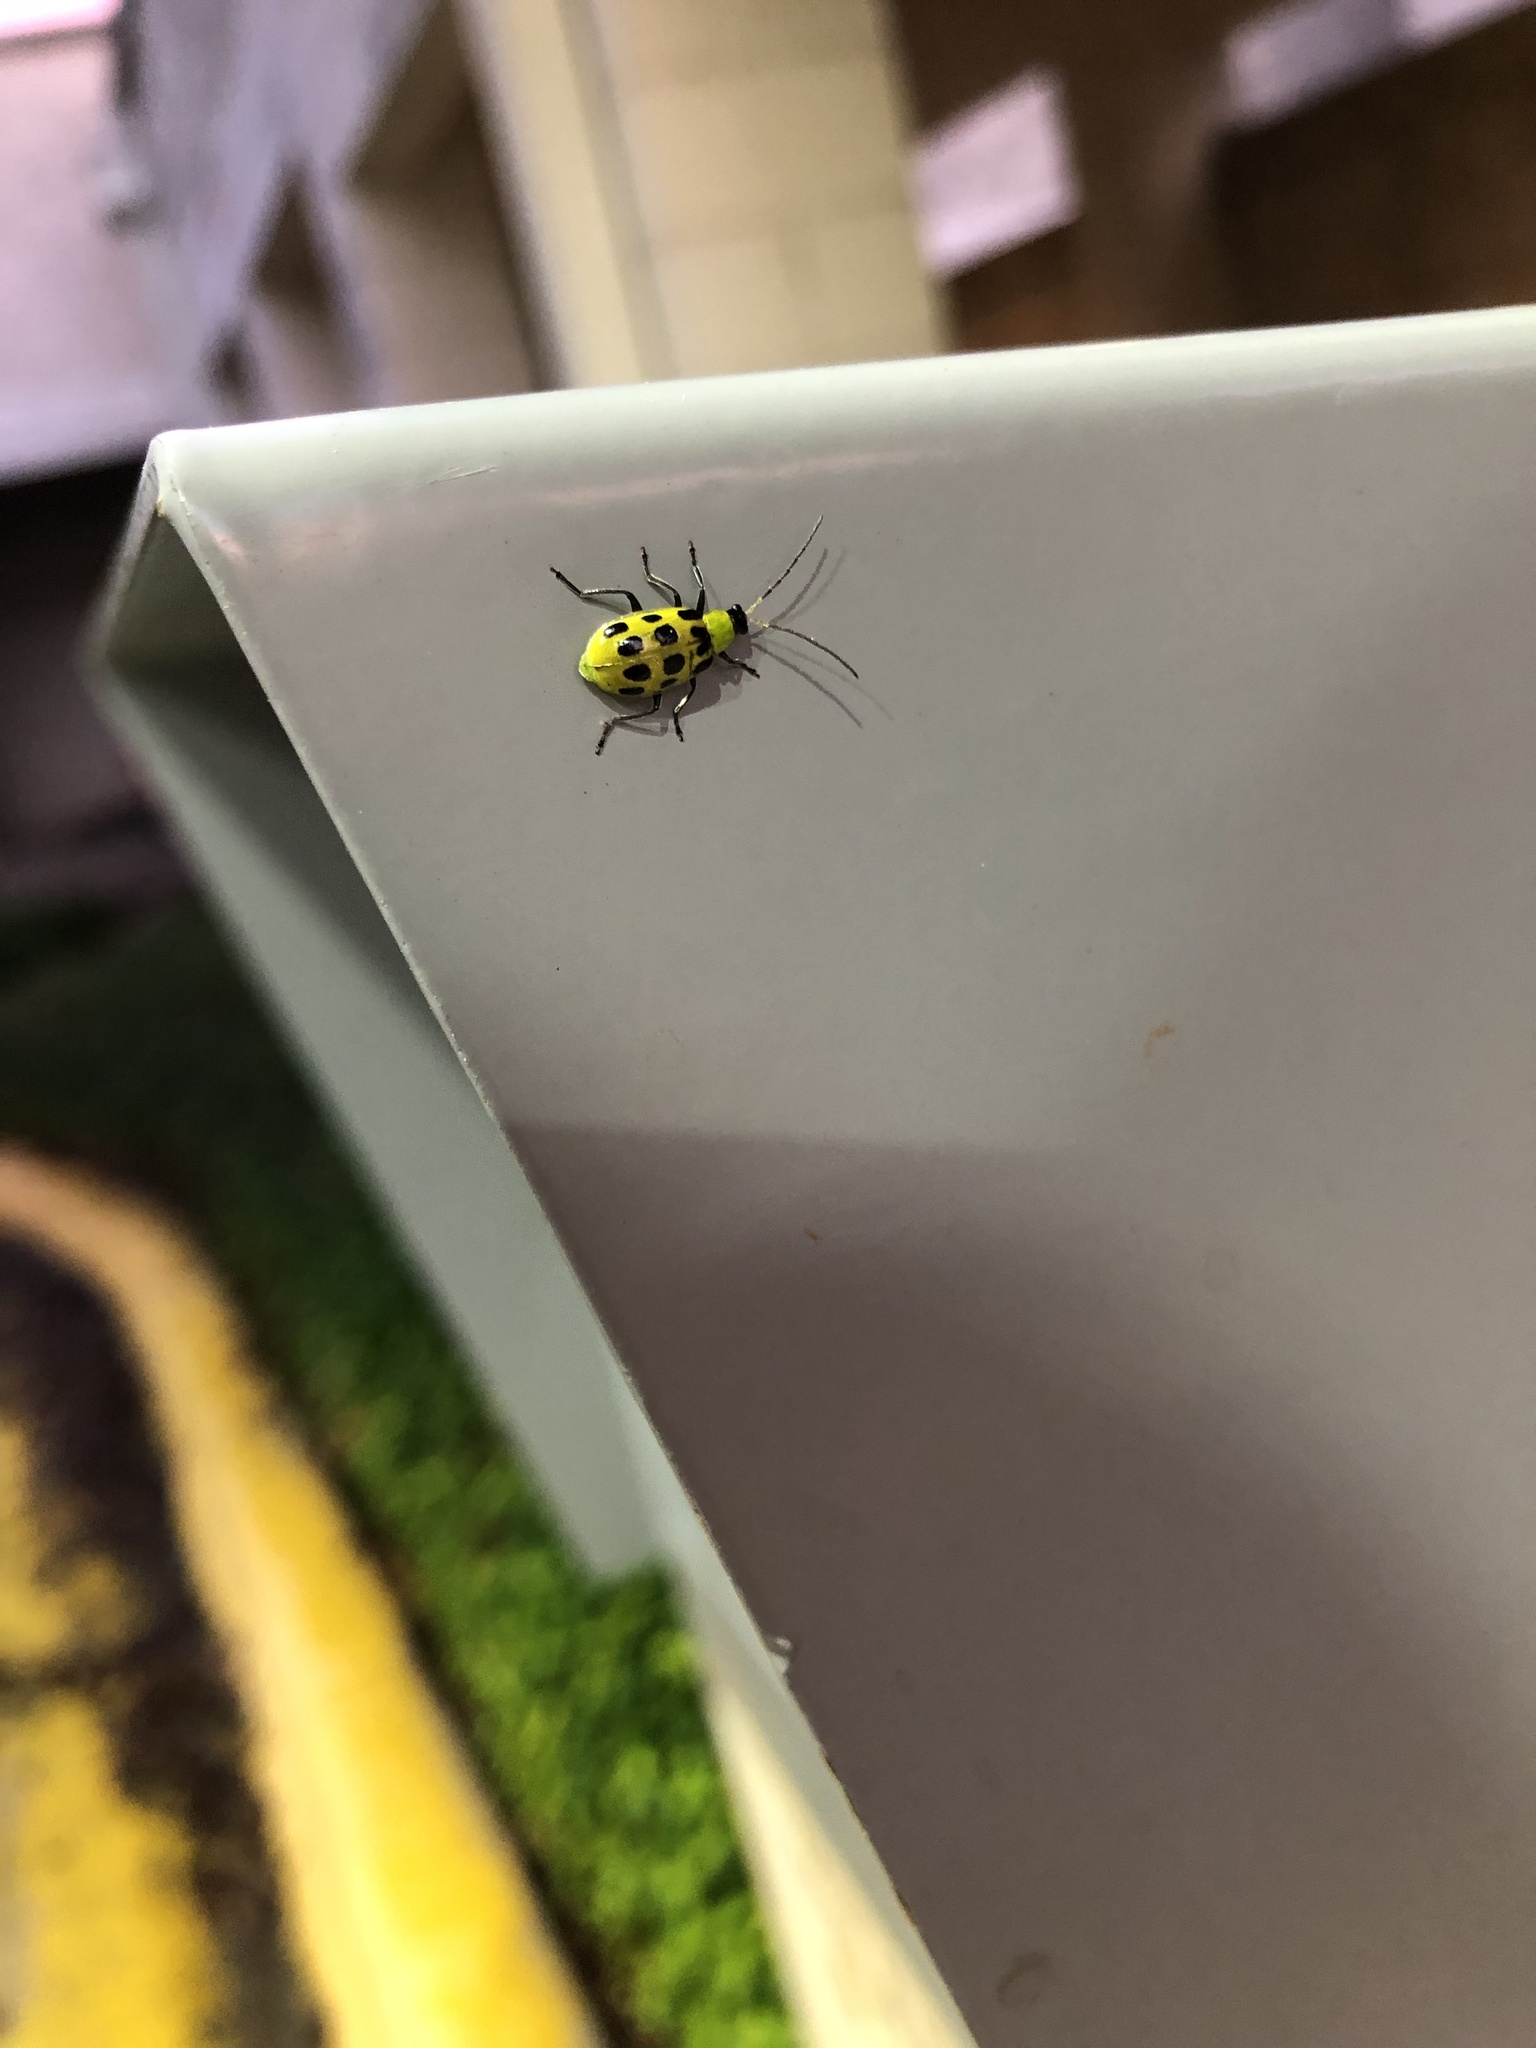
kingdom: Animalia
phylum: Arthropoda
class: Insecta
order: Coleoptera
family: Chrysomelidae
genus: Diabrotica
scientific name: Diabrotica undecimpunctata
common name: Spotted cucumber beetle
